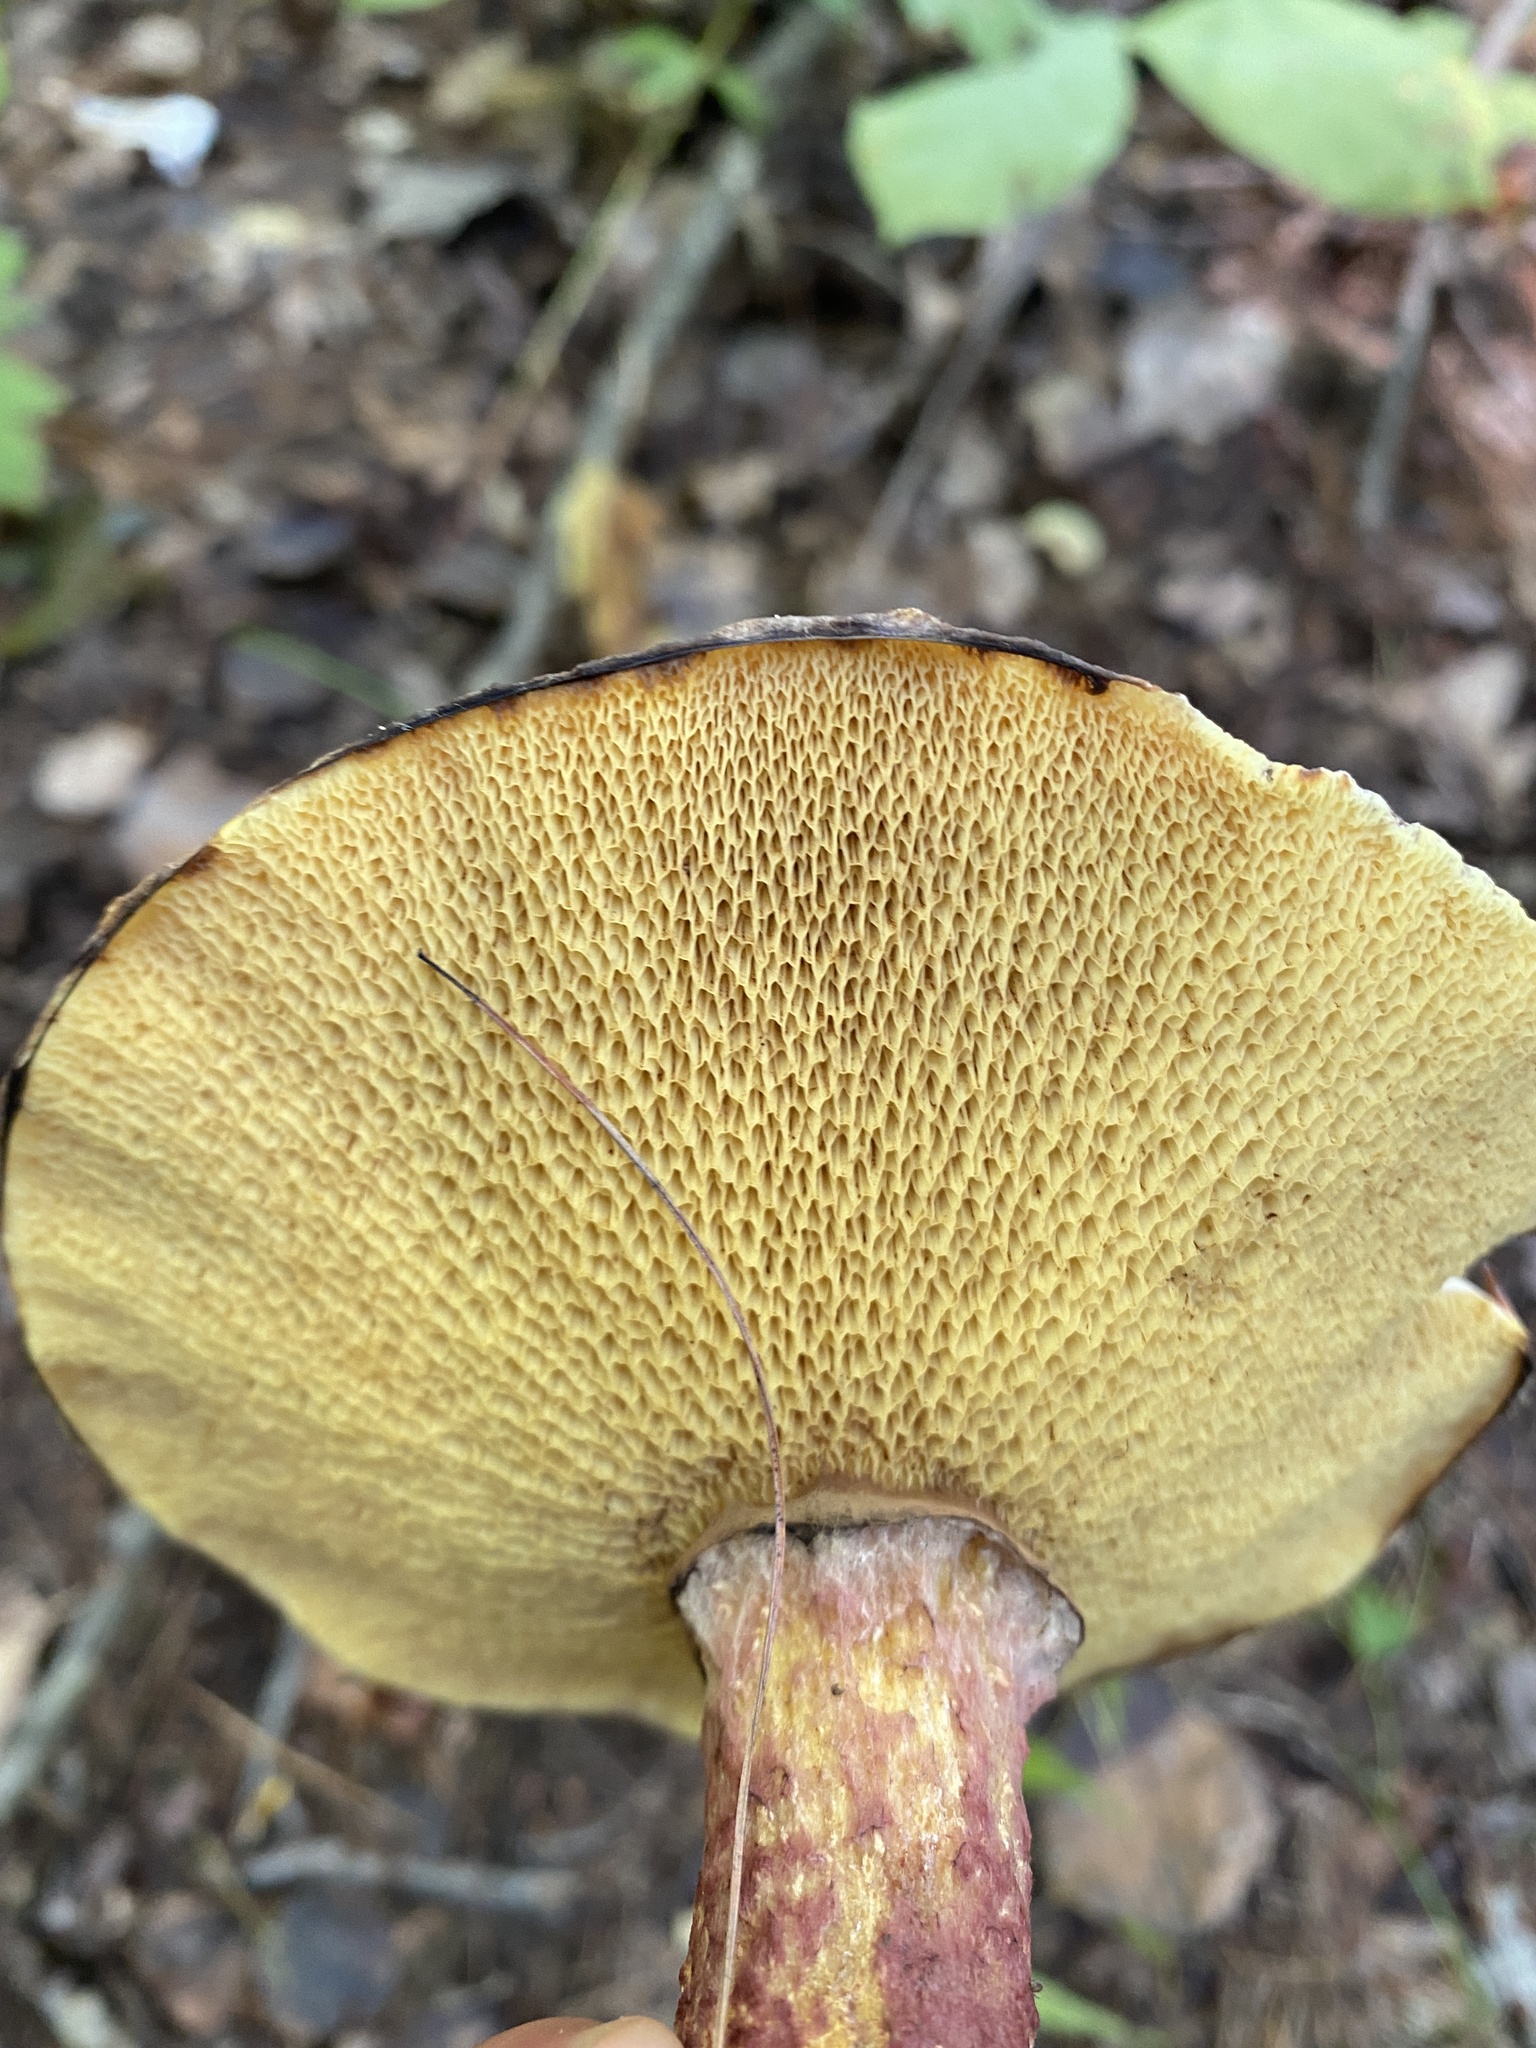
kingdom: Fungi
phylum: Basidiomycota
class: Agaricomycetes
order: Boletales
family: Suillaceae
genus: Suillus
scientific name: Suillus spraguei
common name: Painted suillus
